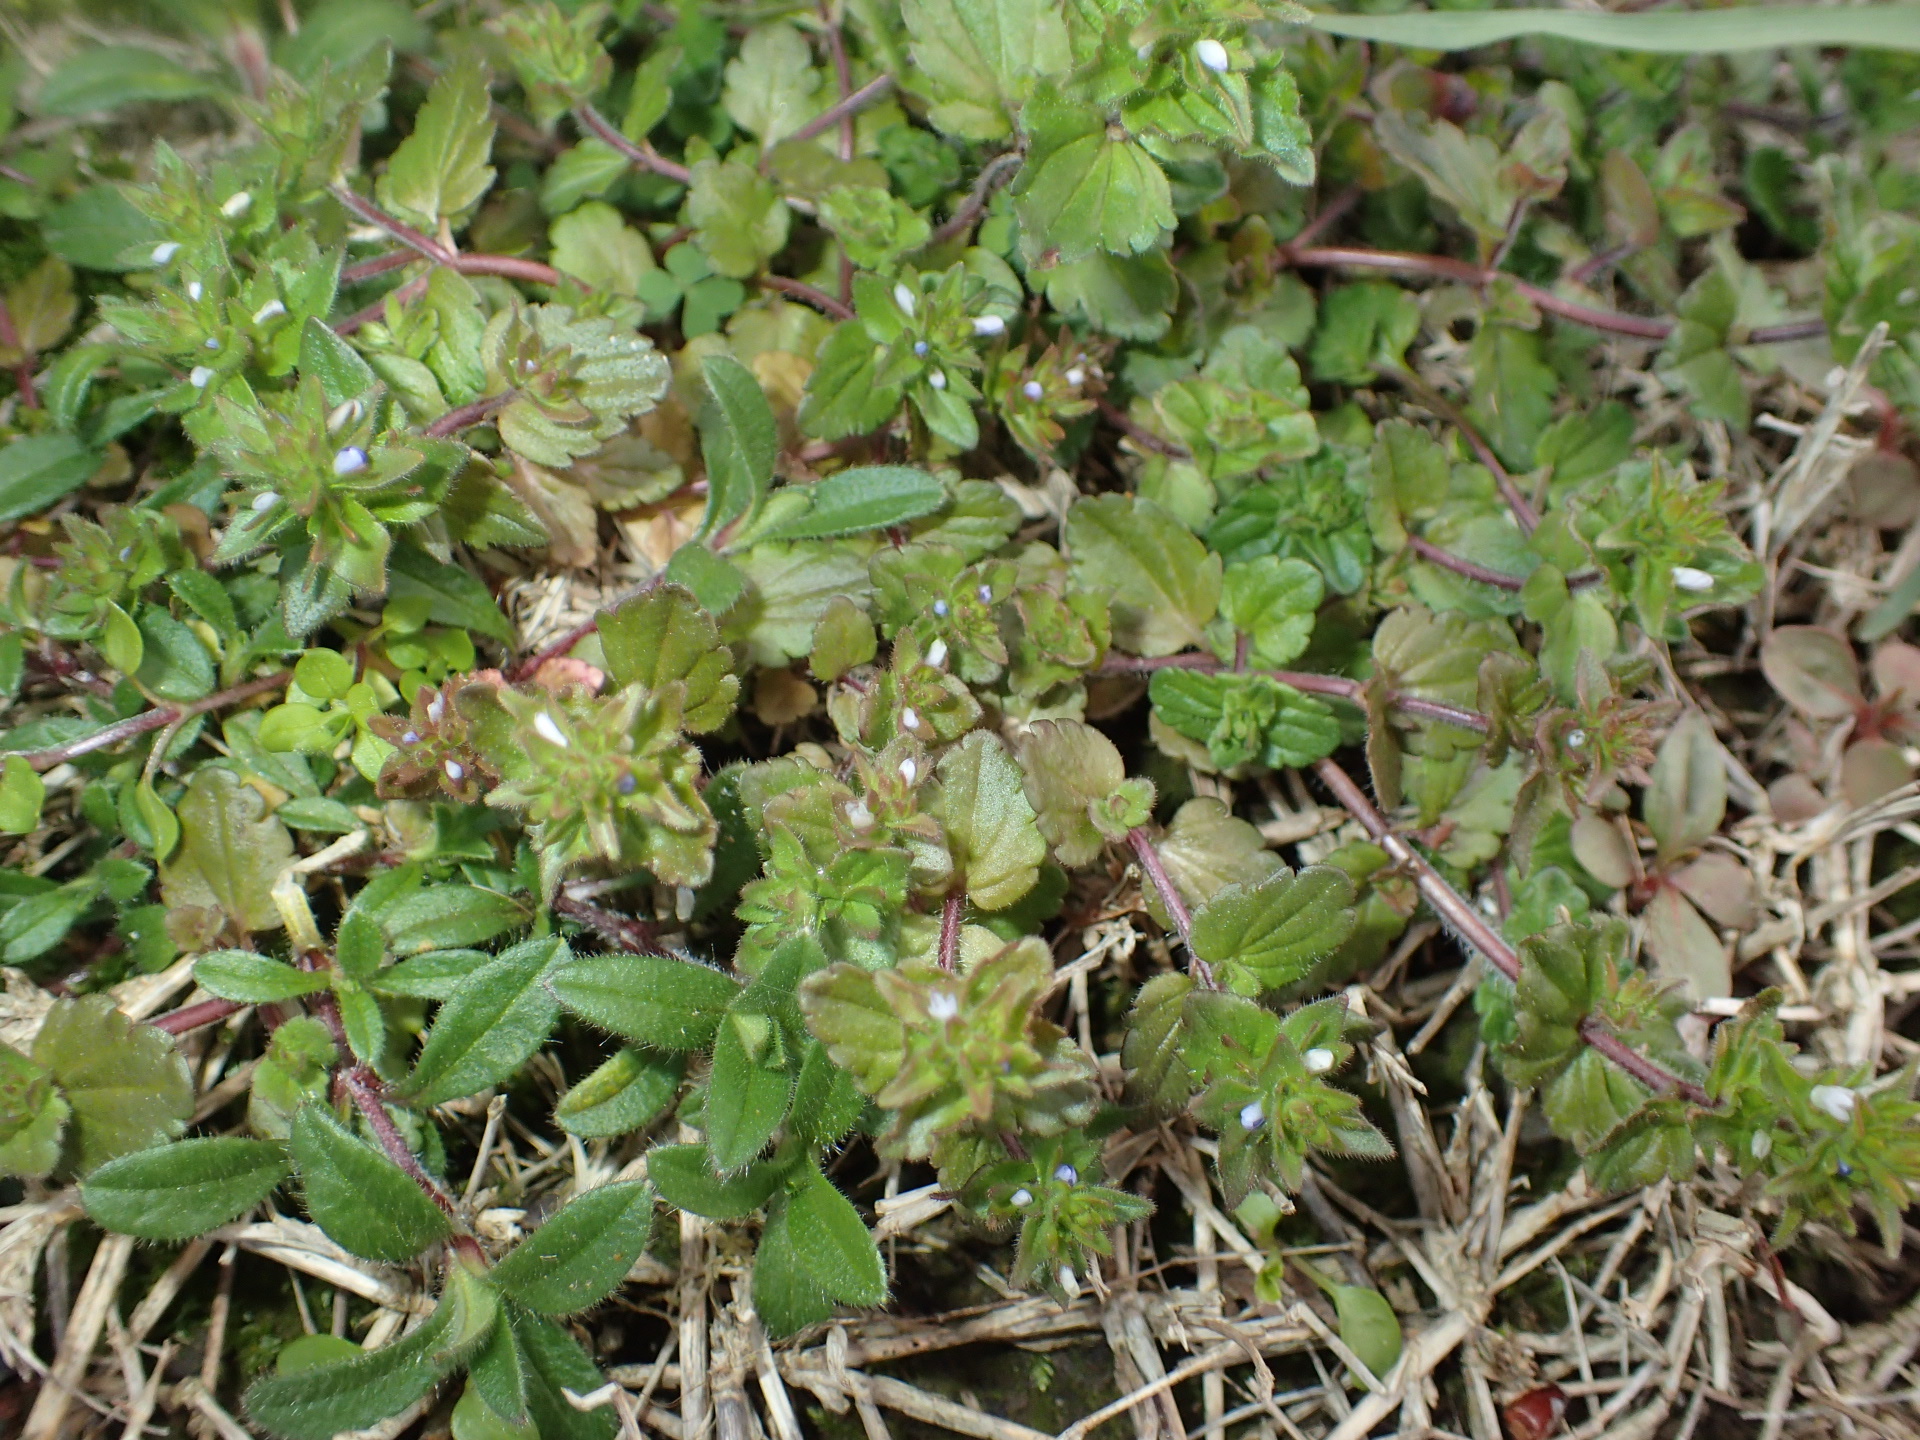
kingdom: Plantae
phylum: Tracheophyta
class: Magnoliopsida
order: Lamiales
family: Plantaginaceae
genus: Veronica
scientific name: Veronica arvensis
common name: Corn speedwell
